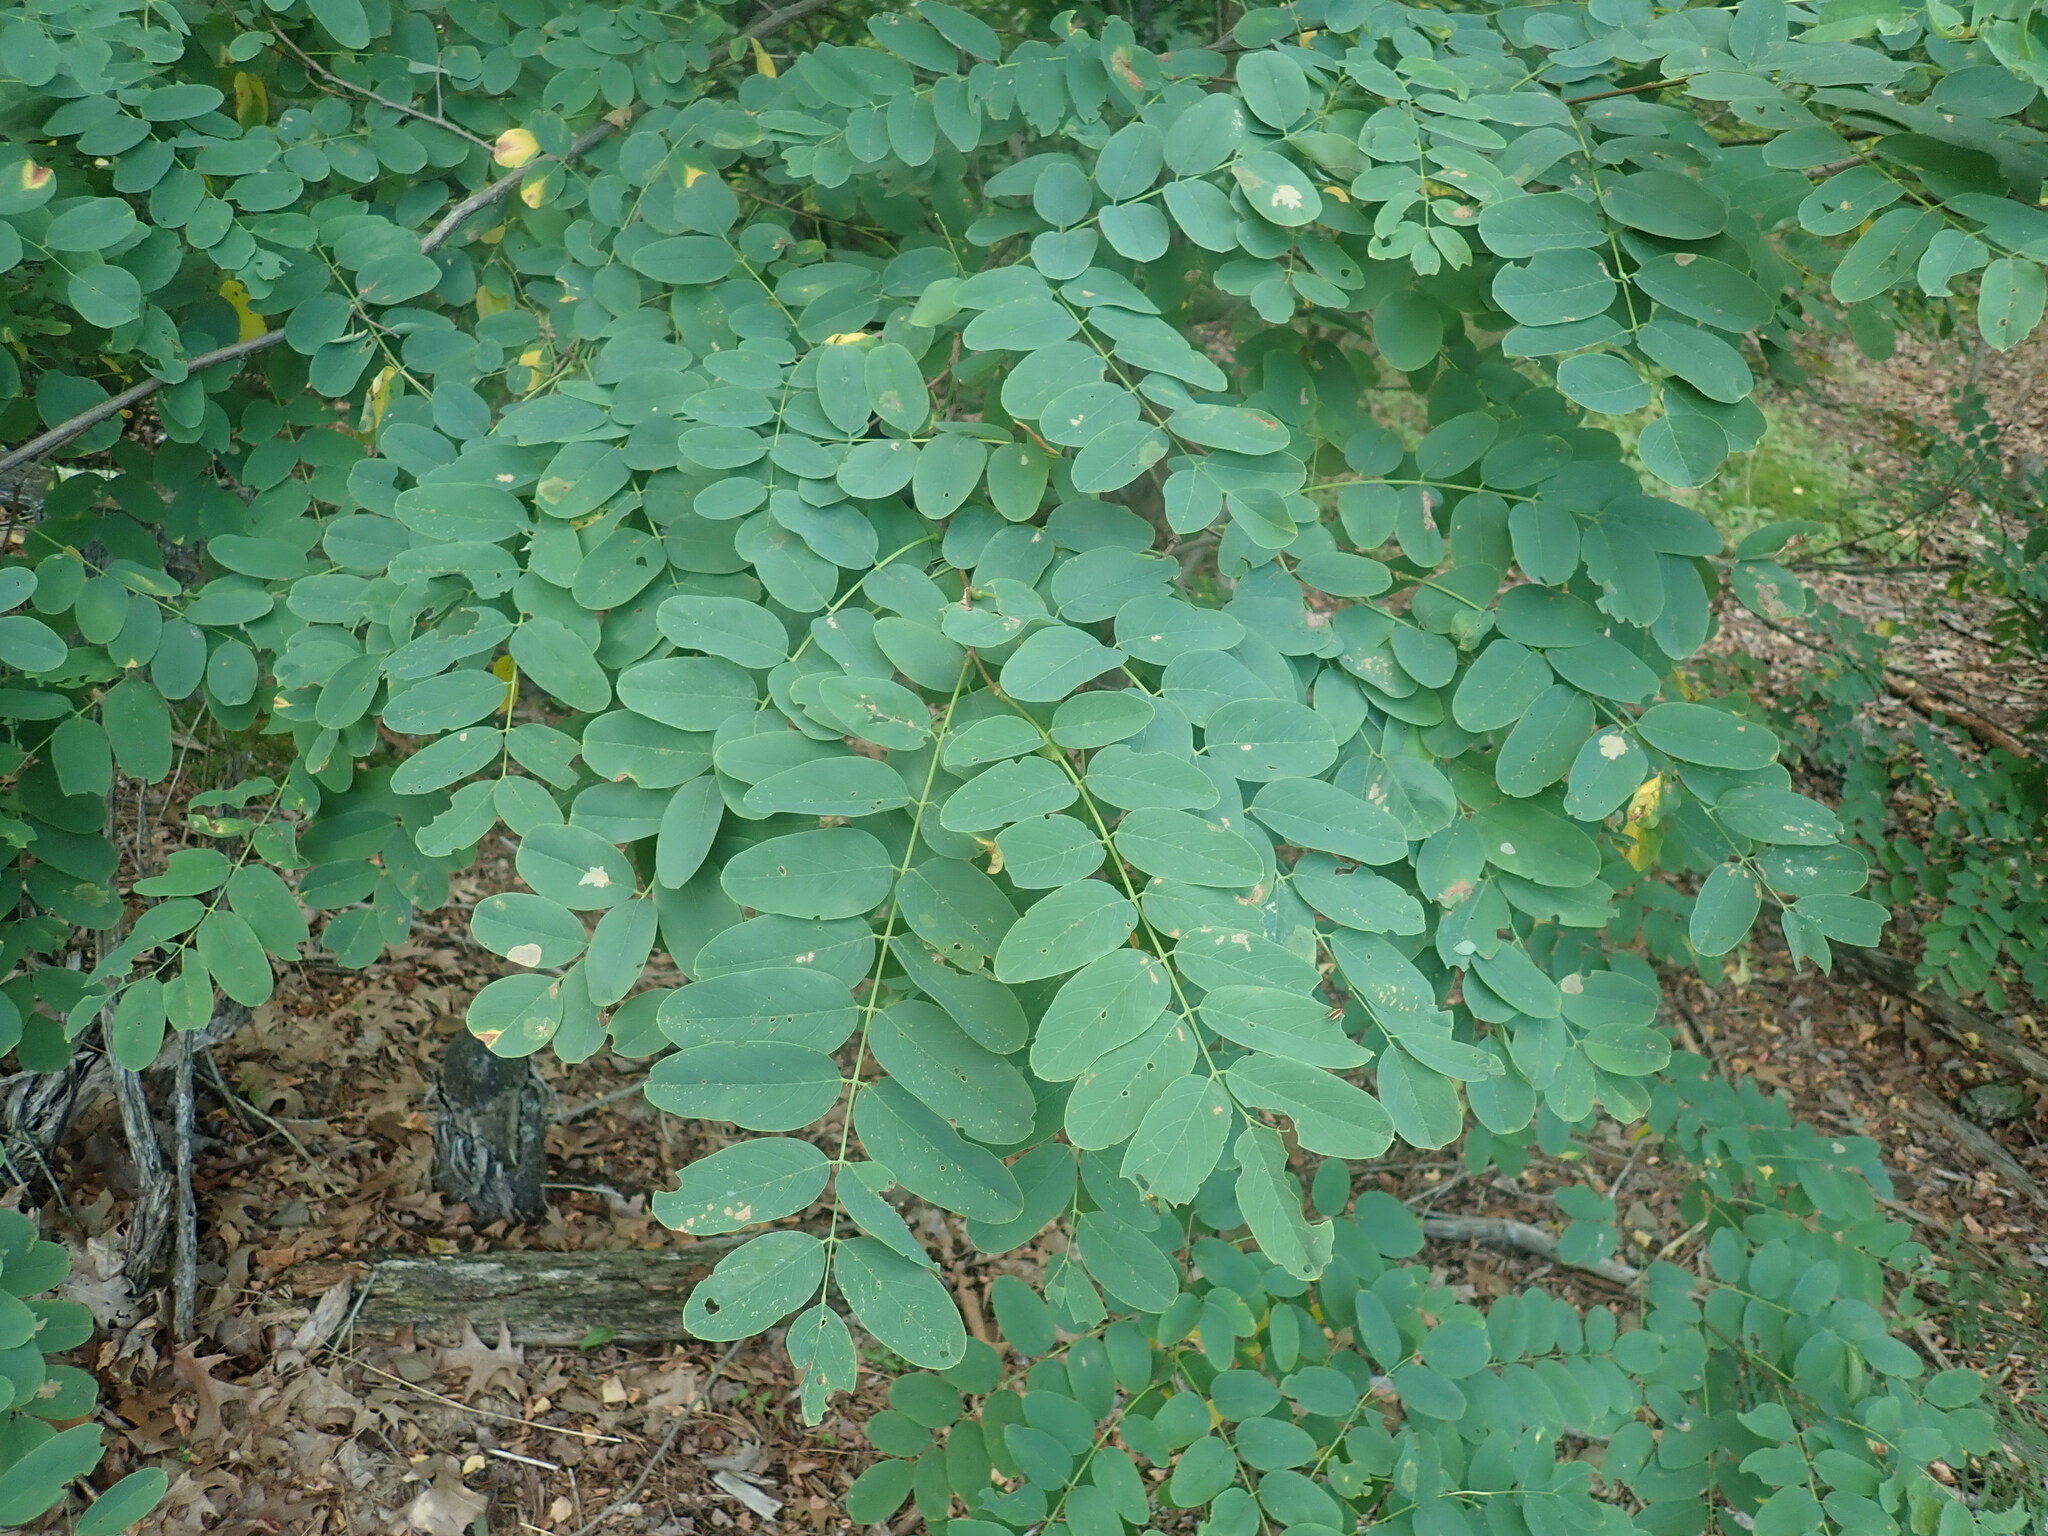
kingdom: Plantae
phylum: Tracheophyta
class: Magnoliopsida
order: Fabales
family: Fabaceae
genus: Robinia
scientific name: Robinia pseudoacacia
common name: Black locust
